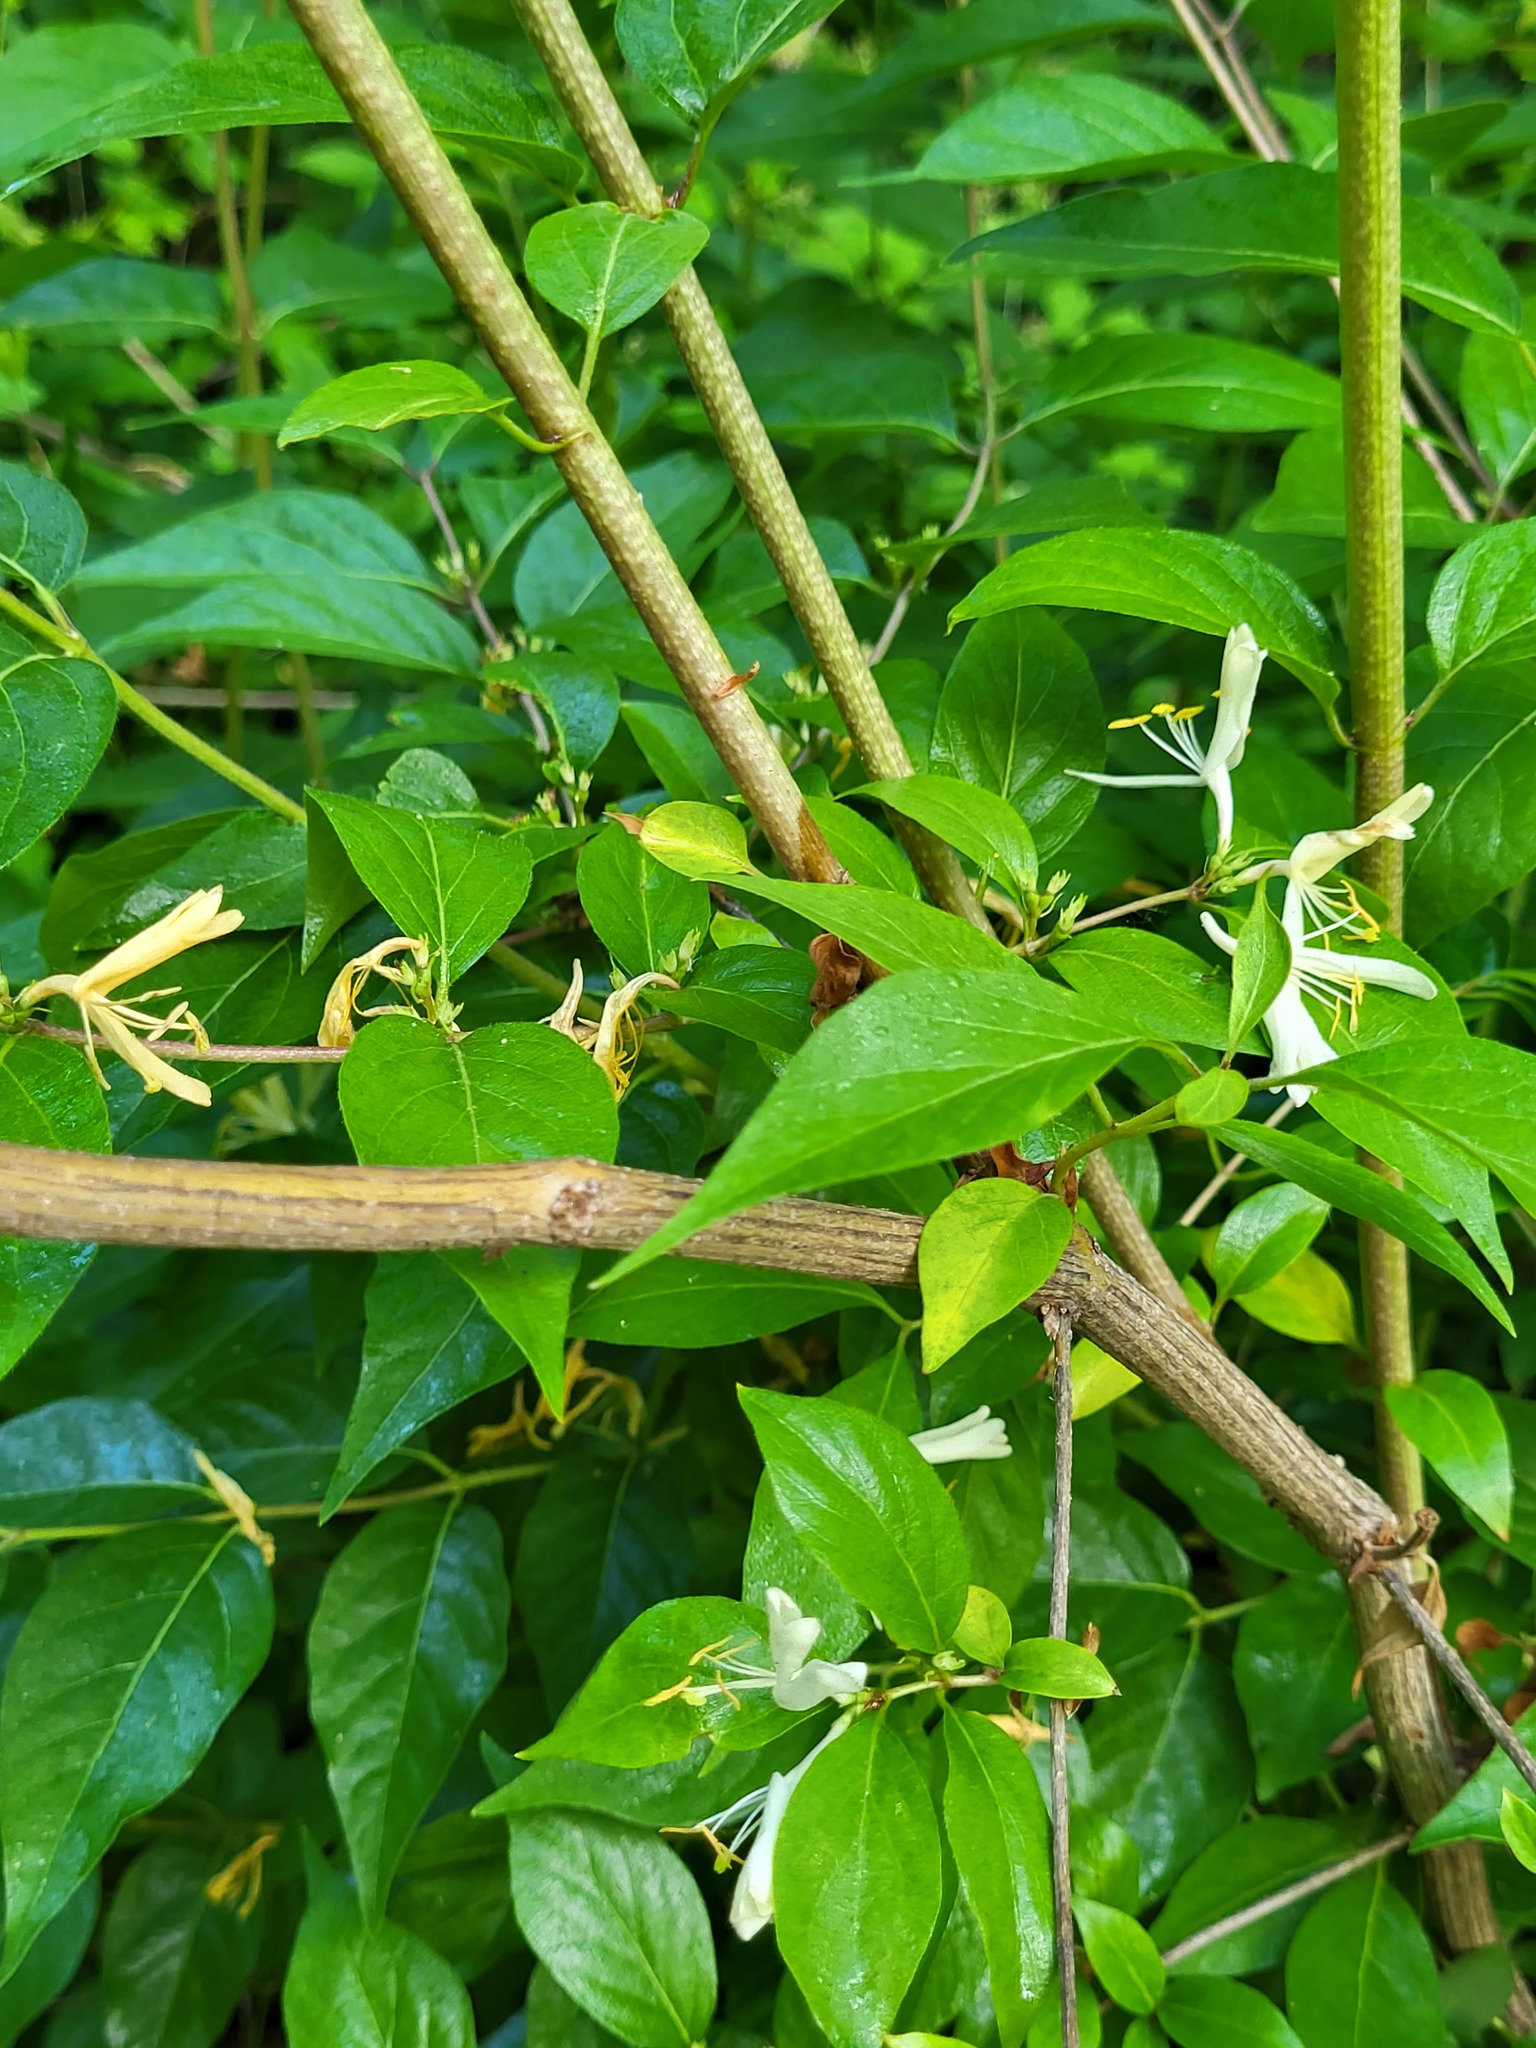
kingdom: Plantae
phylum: Tracheophyta
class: Magnoliopsida
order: Dipsacales
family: Caprifoliaceae
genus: Lonicera
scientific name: Lonicera maackii
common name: Amur honeysuckle
